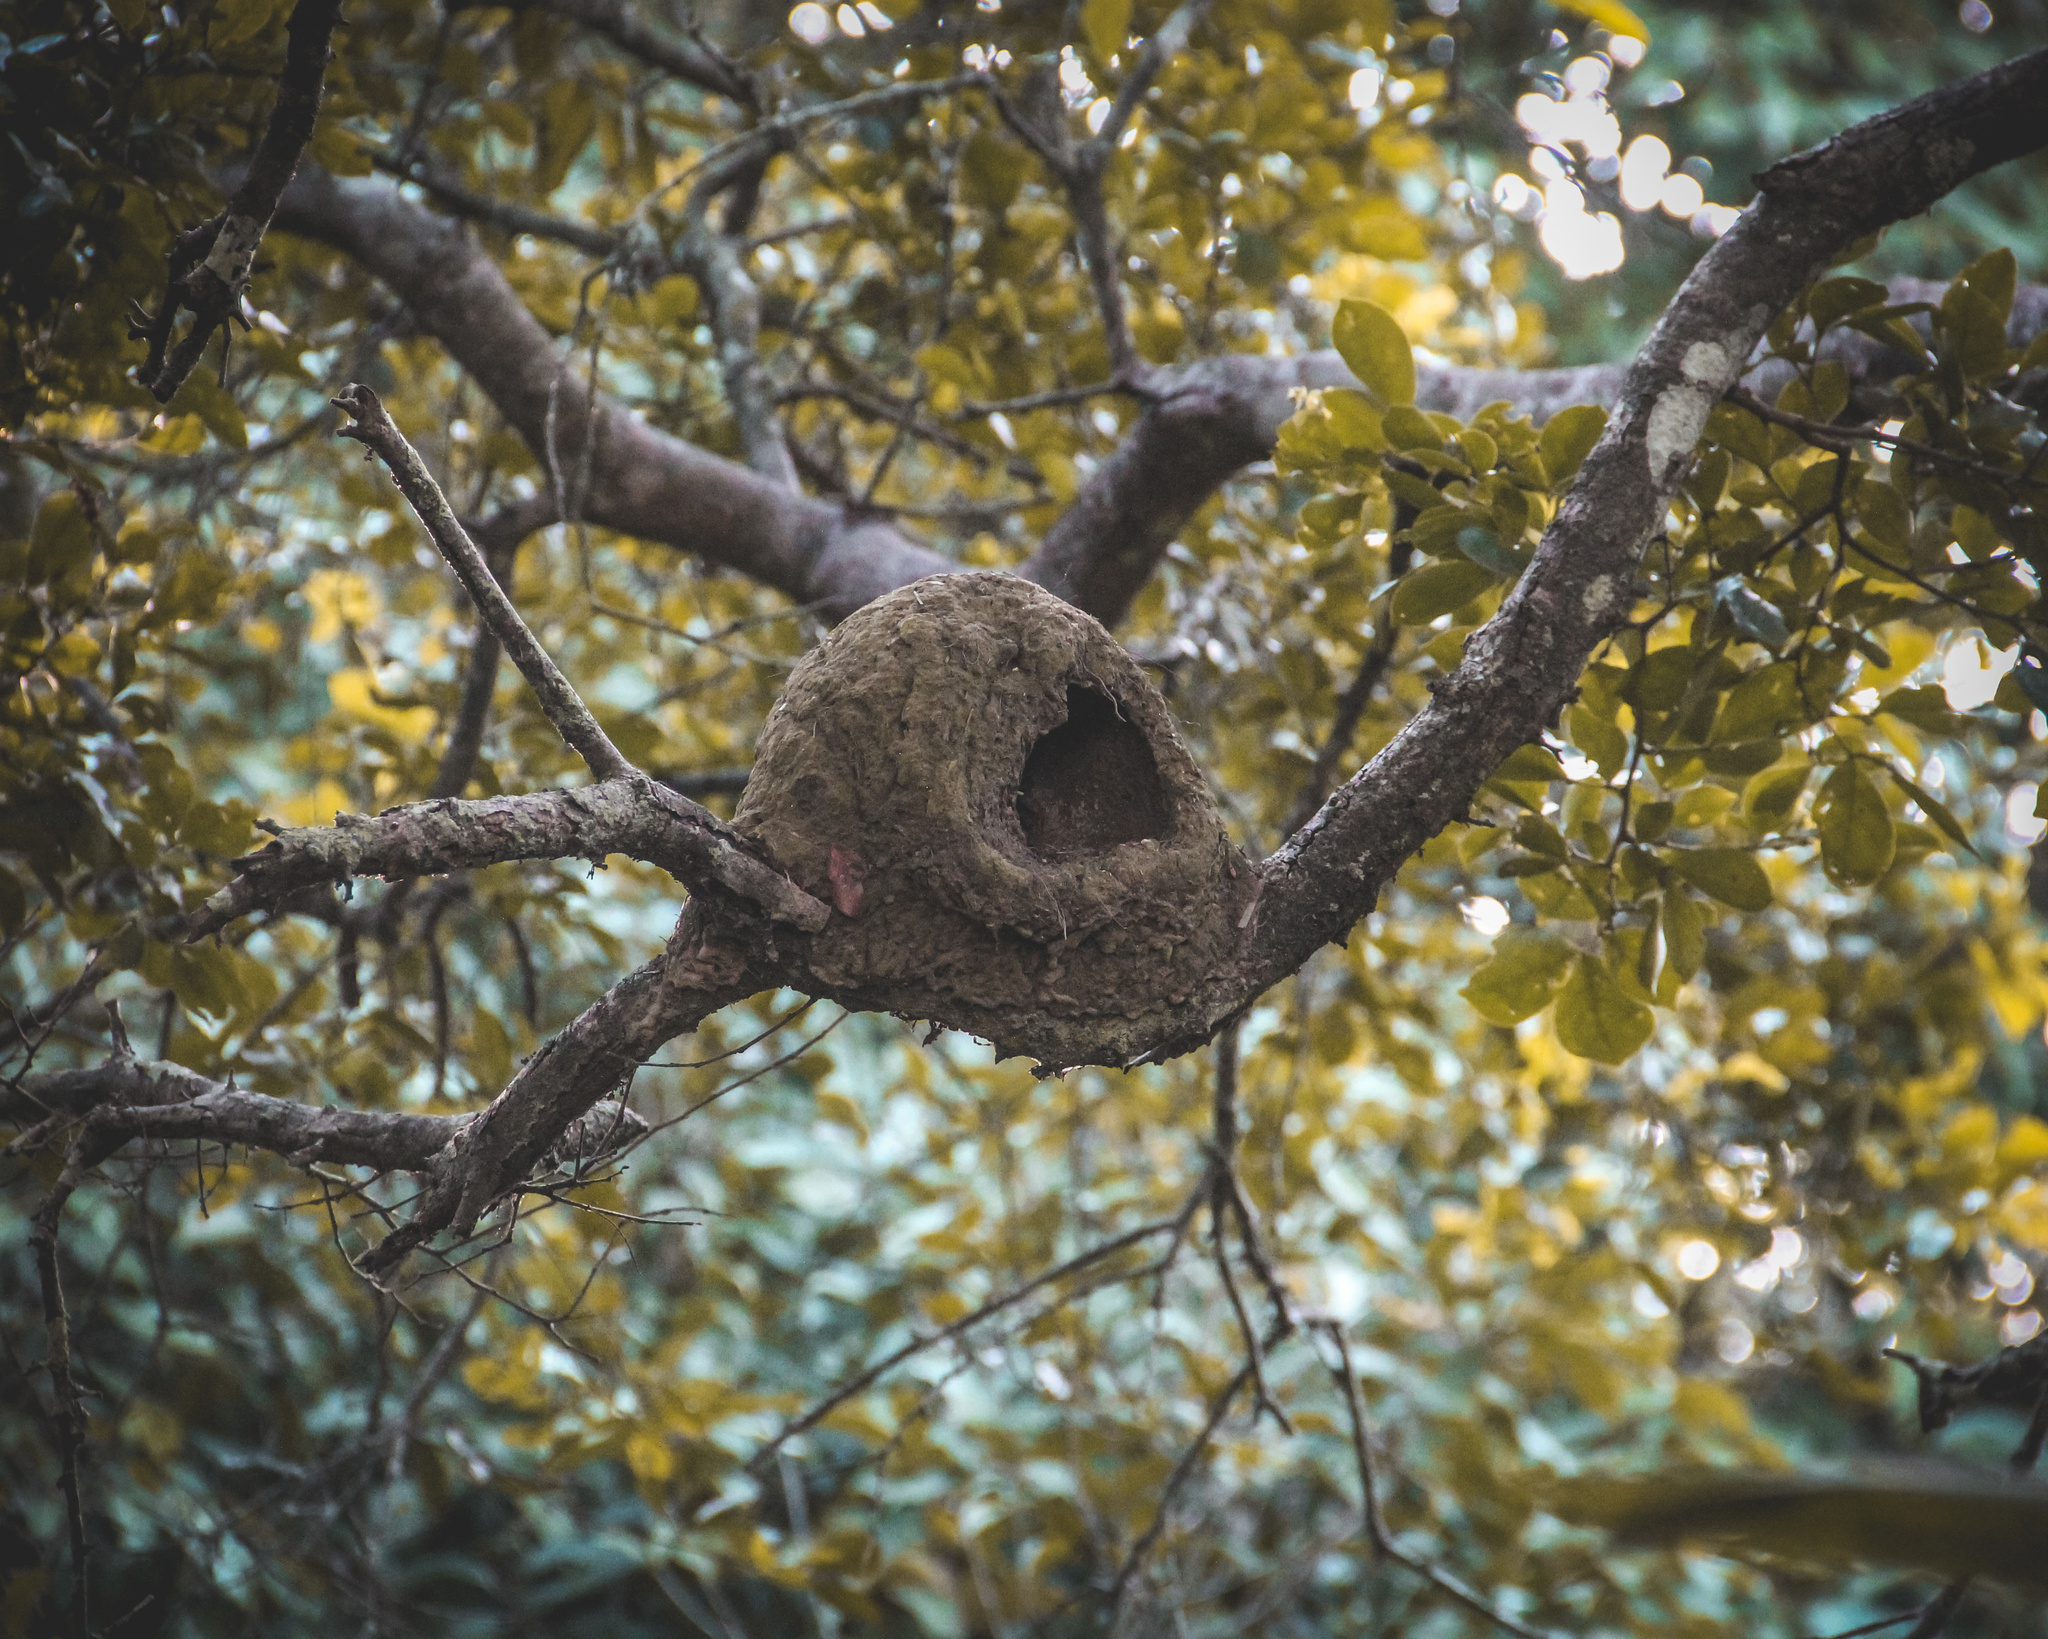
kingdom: Animalia
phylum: Chordata
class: Aves
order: Passeriformes
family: Furnariidae
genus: Furnarius
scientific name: Furnarius leucopus
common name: Pale-legged hornero
